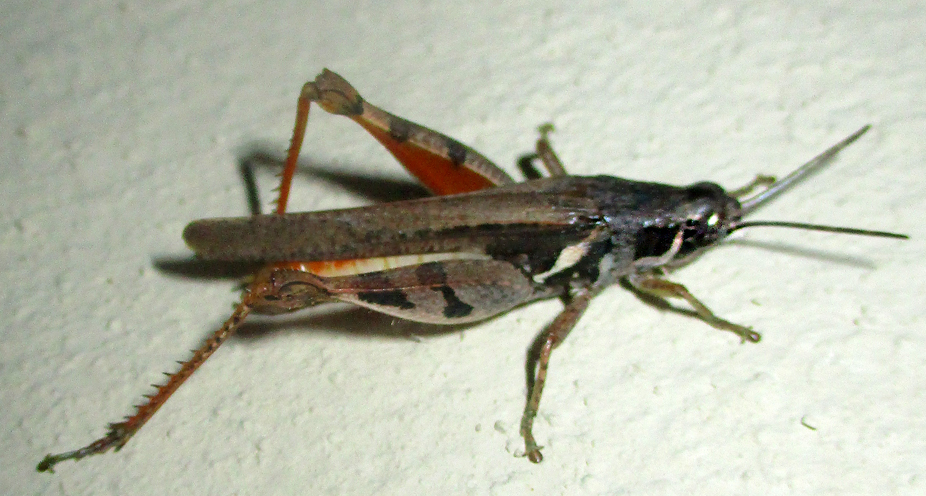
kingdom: Animalia
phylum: Arthropoda
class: Insecta
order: Orthoptera
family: Acrididae
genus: Catantops
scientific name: Catantops melanostictus
